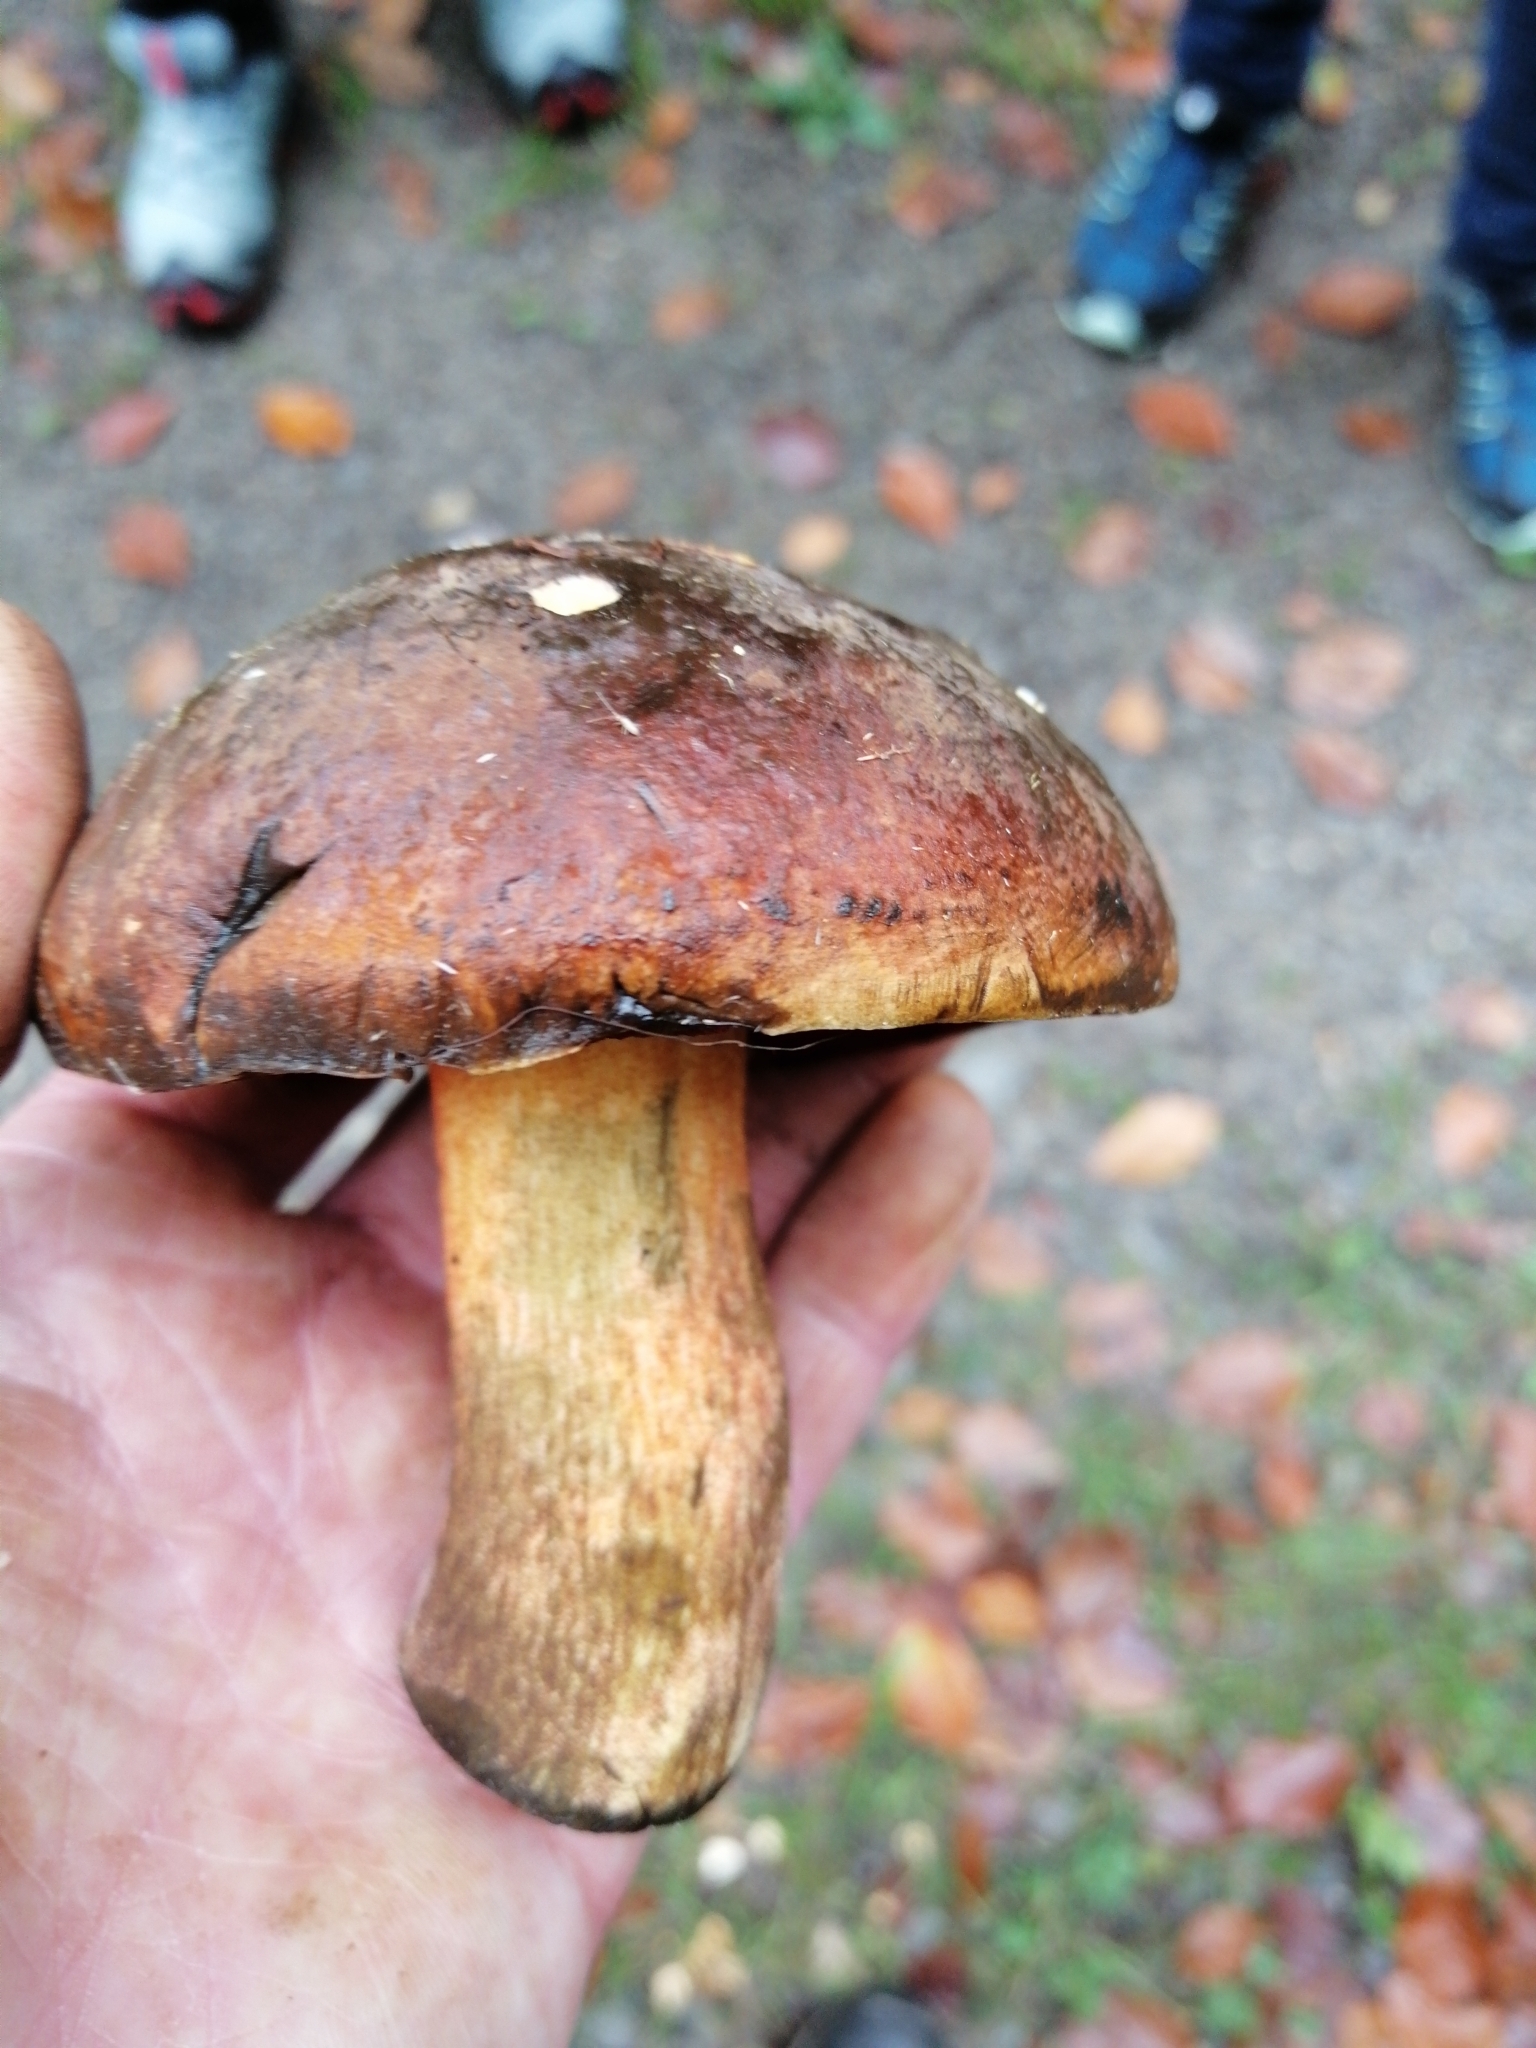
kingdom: Fungi
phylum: Basidiomycota
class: Agaricomycetes
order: Boletales
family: Boletaceae
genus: Neoboletus
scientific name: Neoboletus erythropus
